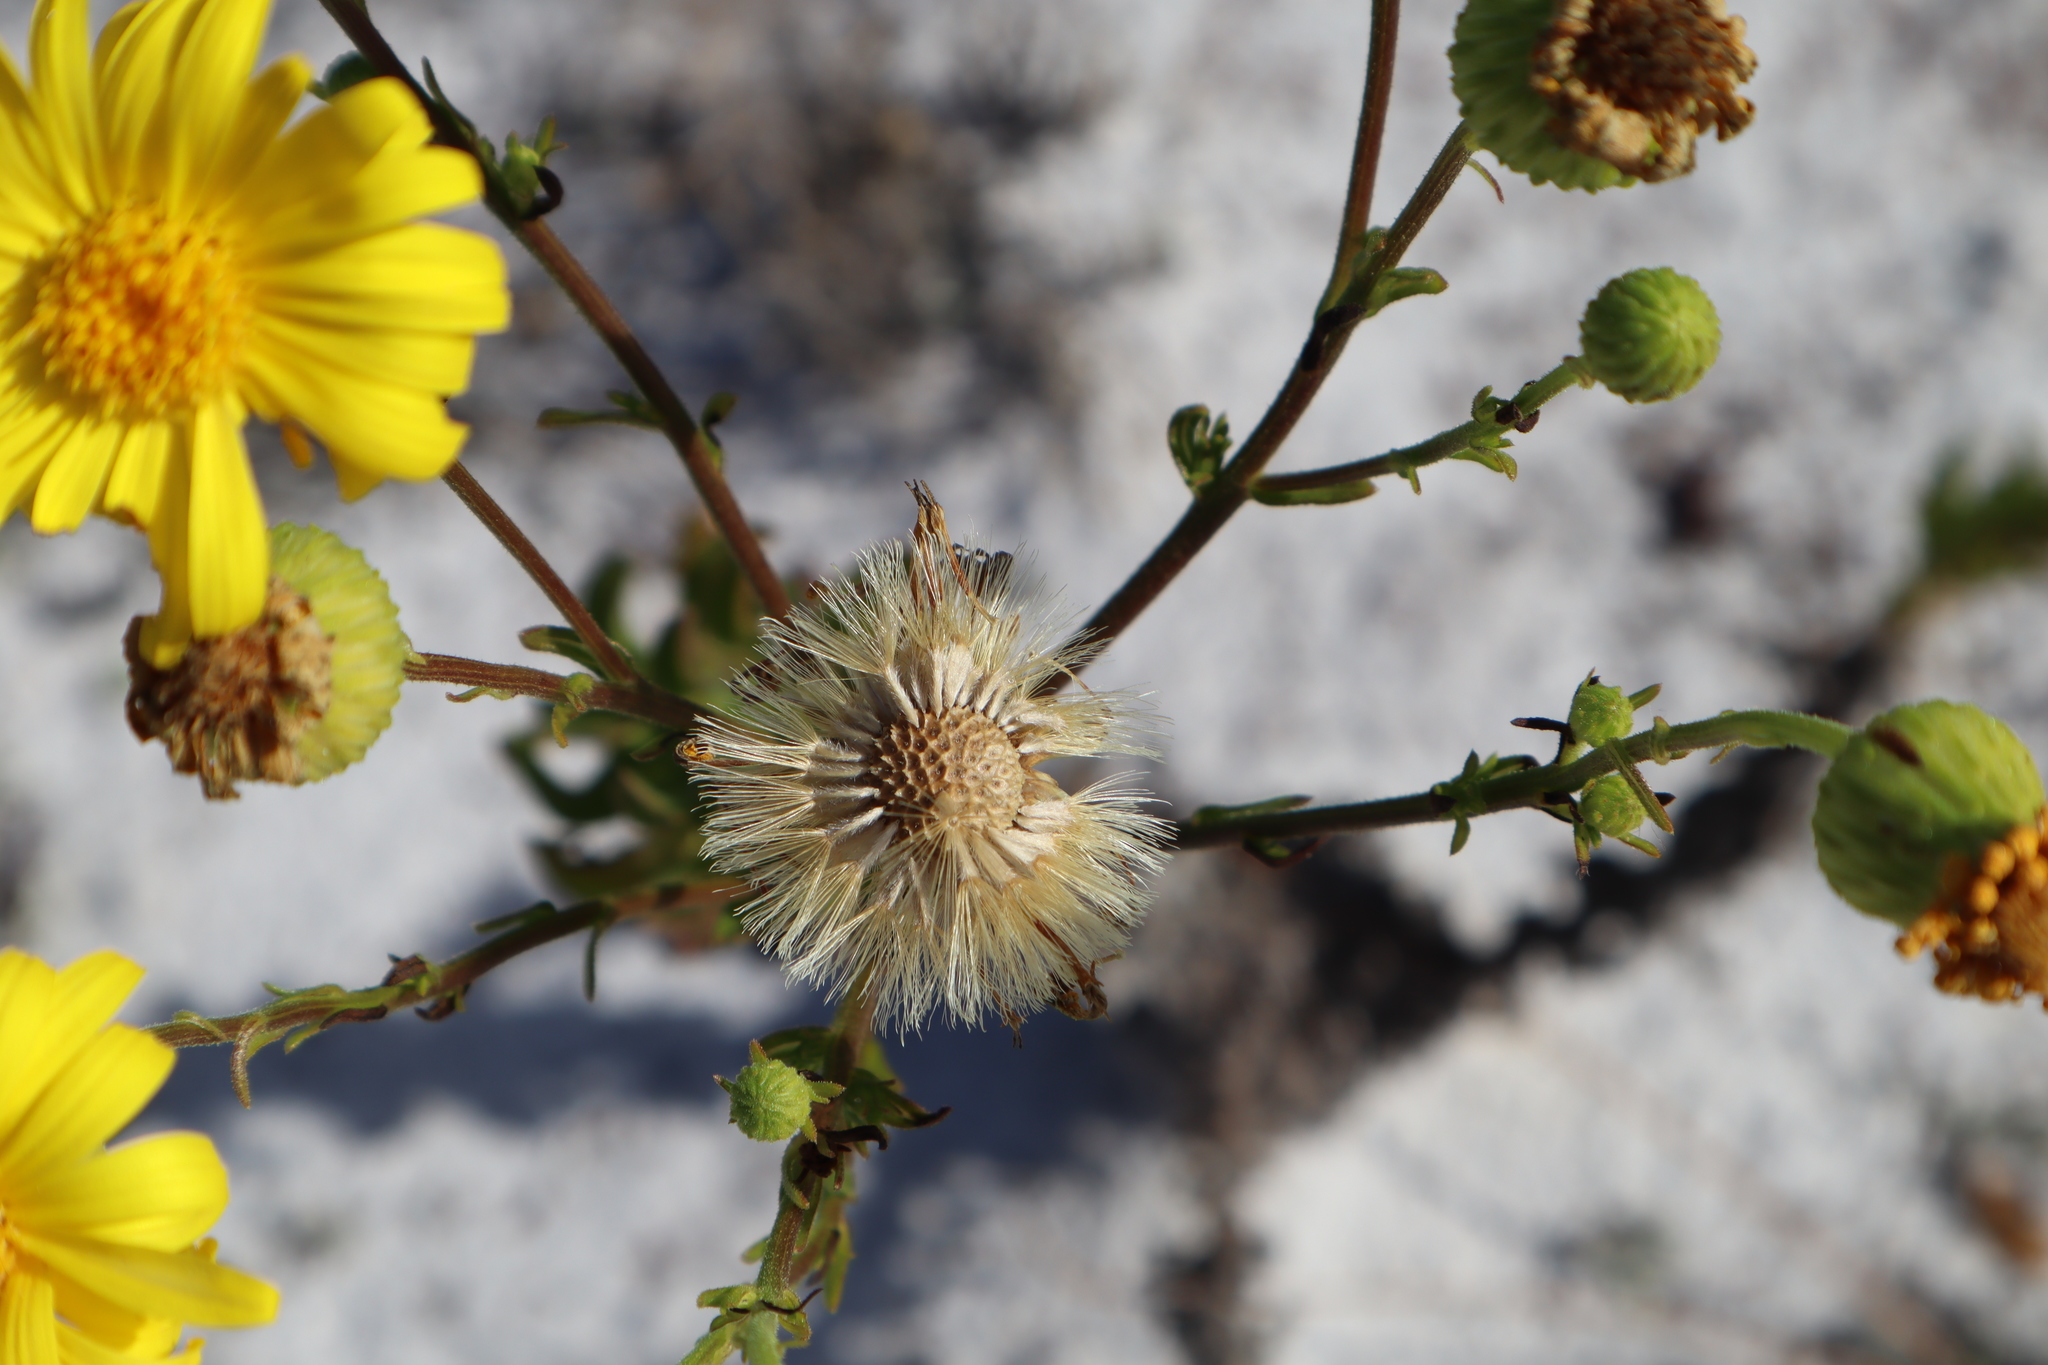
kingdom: Plantae
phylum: Tracheophyta
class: Magnoliopsida
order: Asterales
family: Asteraceae
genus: Chrysopsis
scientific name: Chrysopsis scabrella
